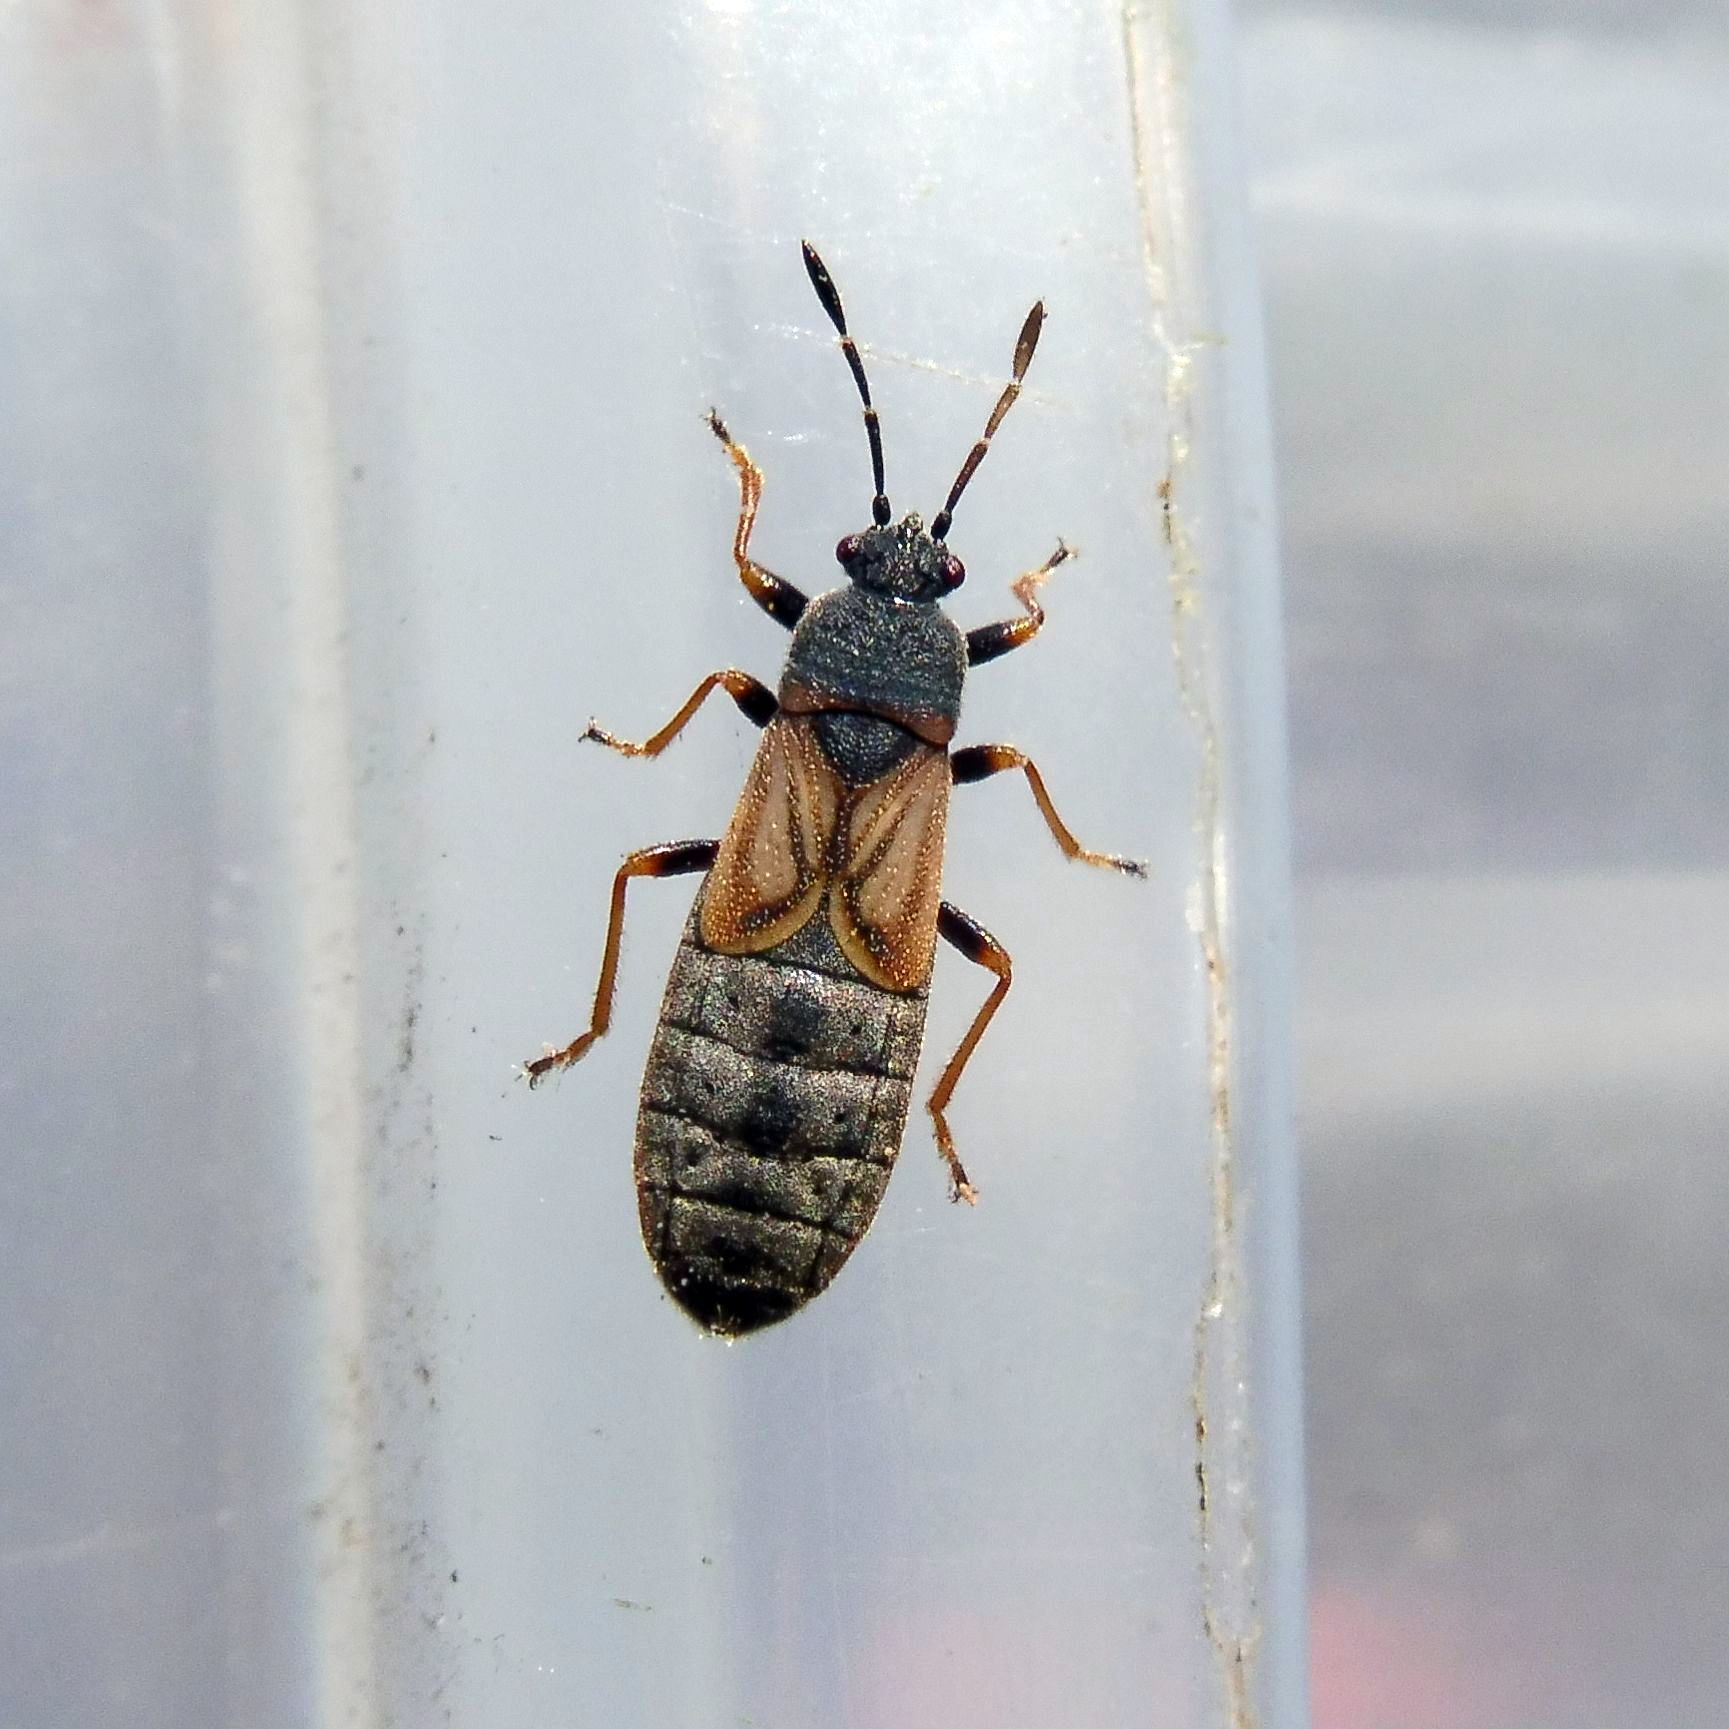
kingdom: Animalia
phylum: Arthropoda
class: Insecta
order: Hemiptera
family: Blissidae
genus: Ischnodemus
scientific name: Ischnodemus sabuleti
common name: European cinchbug
